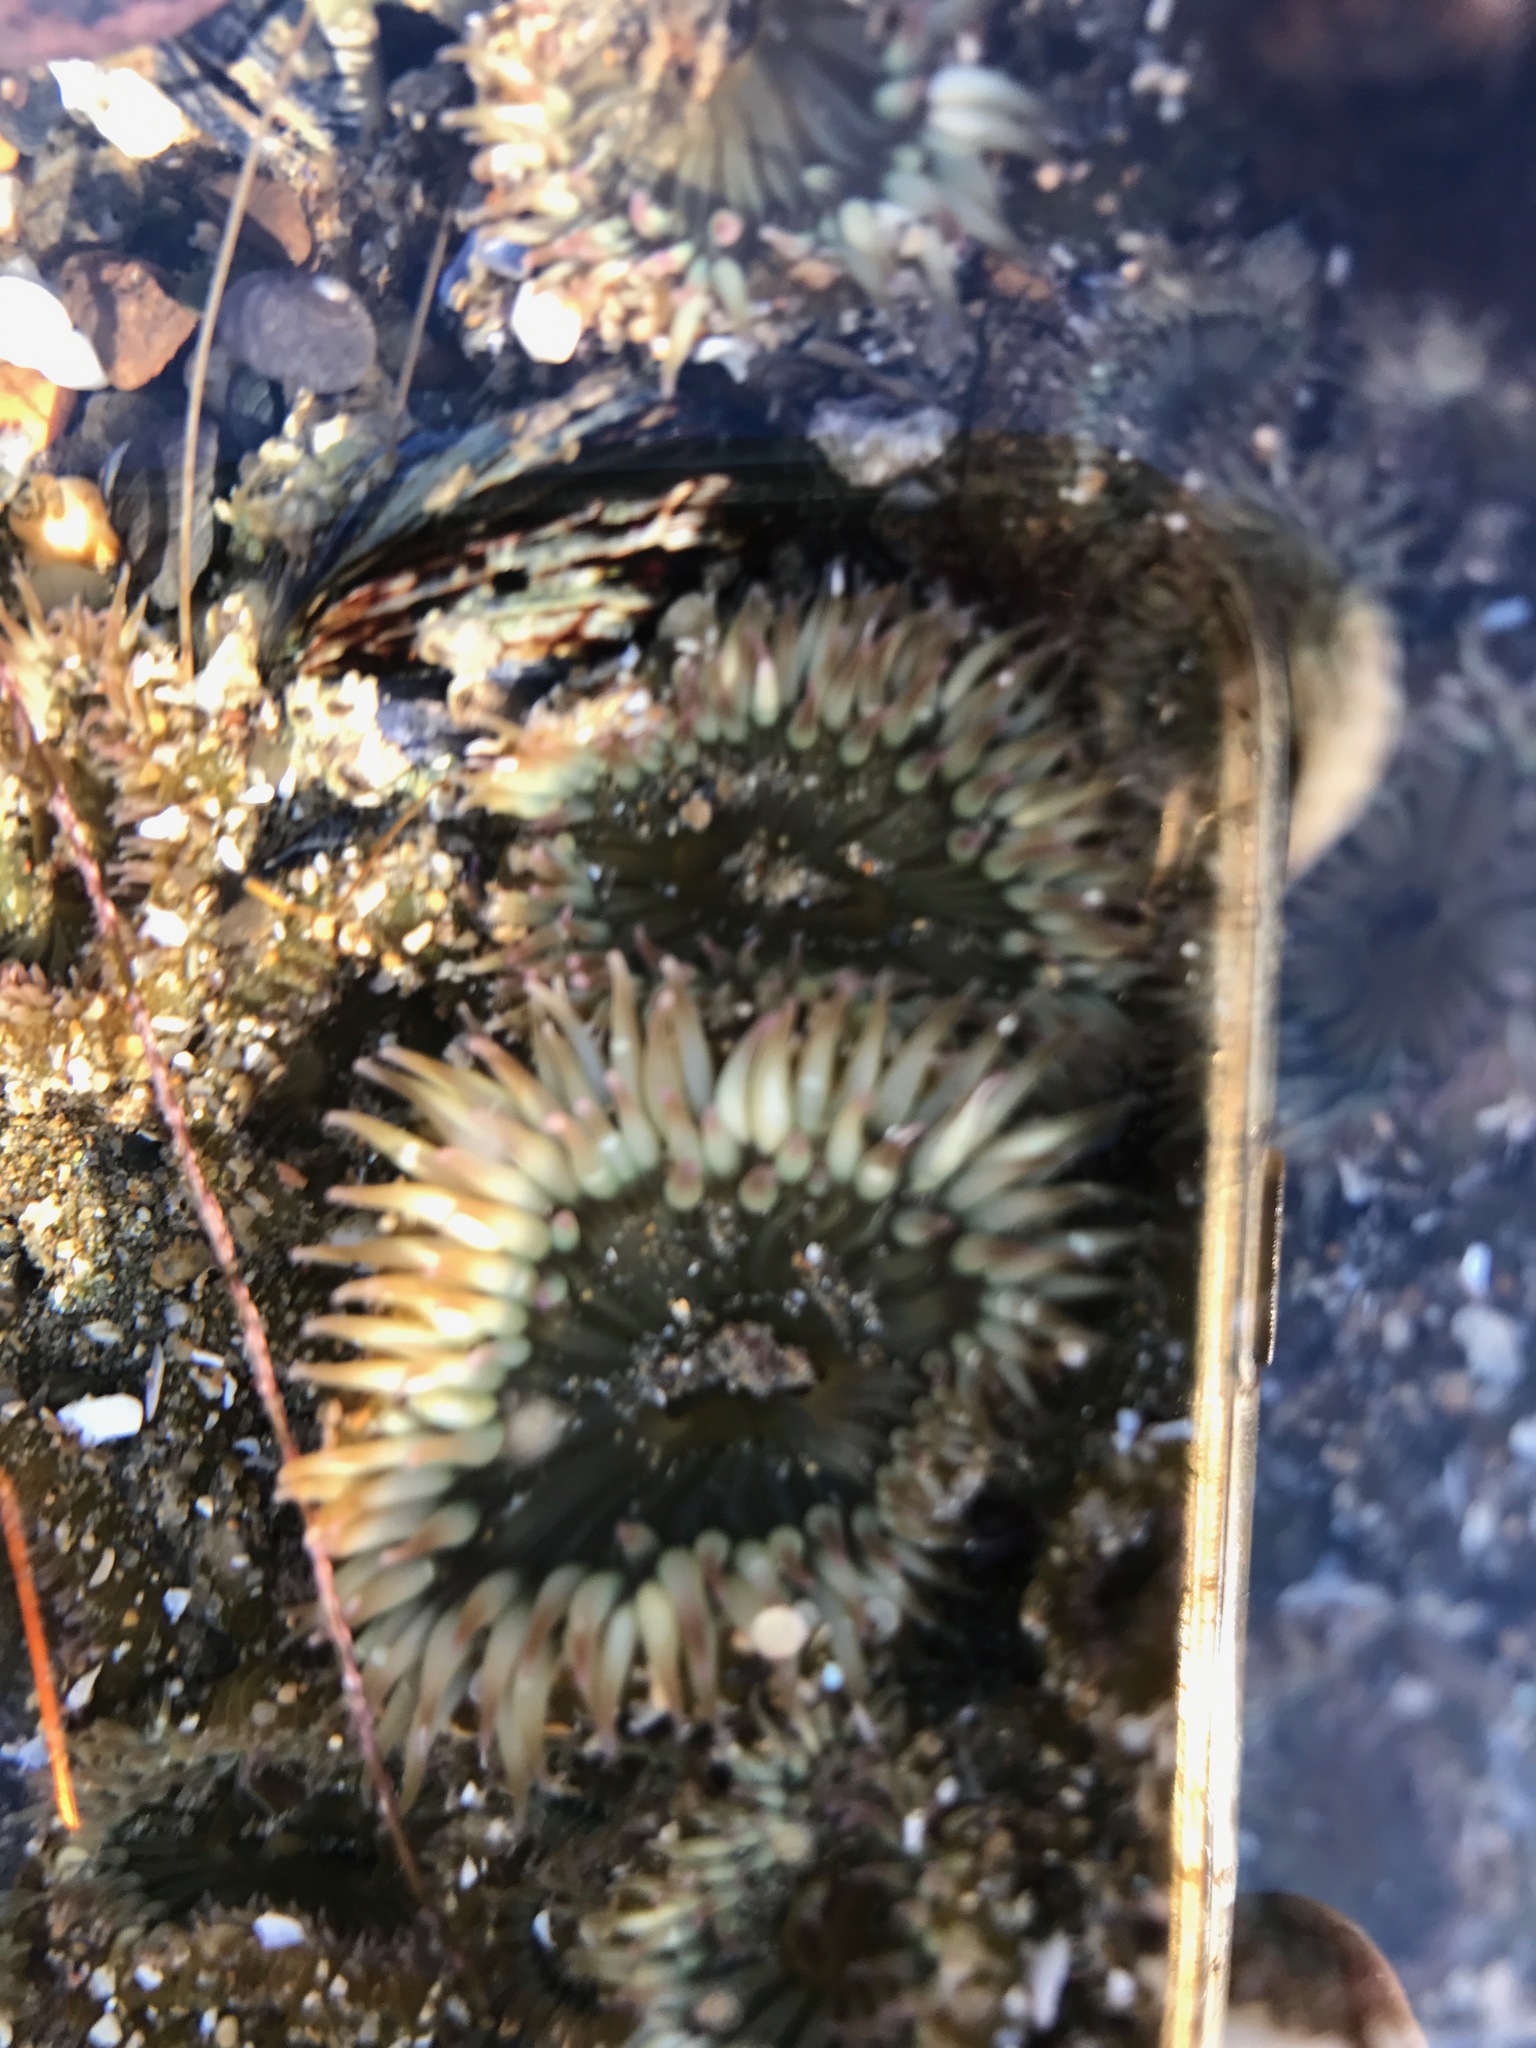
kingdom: Animalia
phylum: Cnidaria
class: Anthozoa
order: Actiniaria
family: Actiniidae
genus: Anthopleura
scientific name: Anthopleura elegantissima
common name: Clonal anemone
